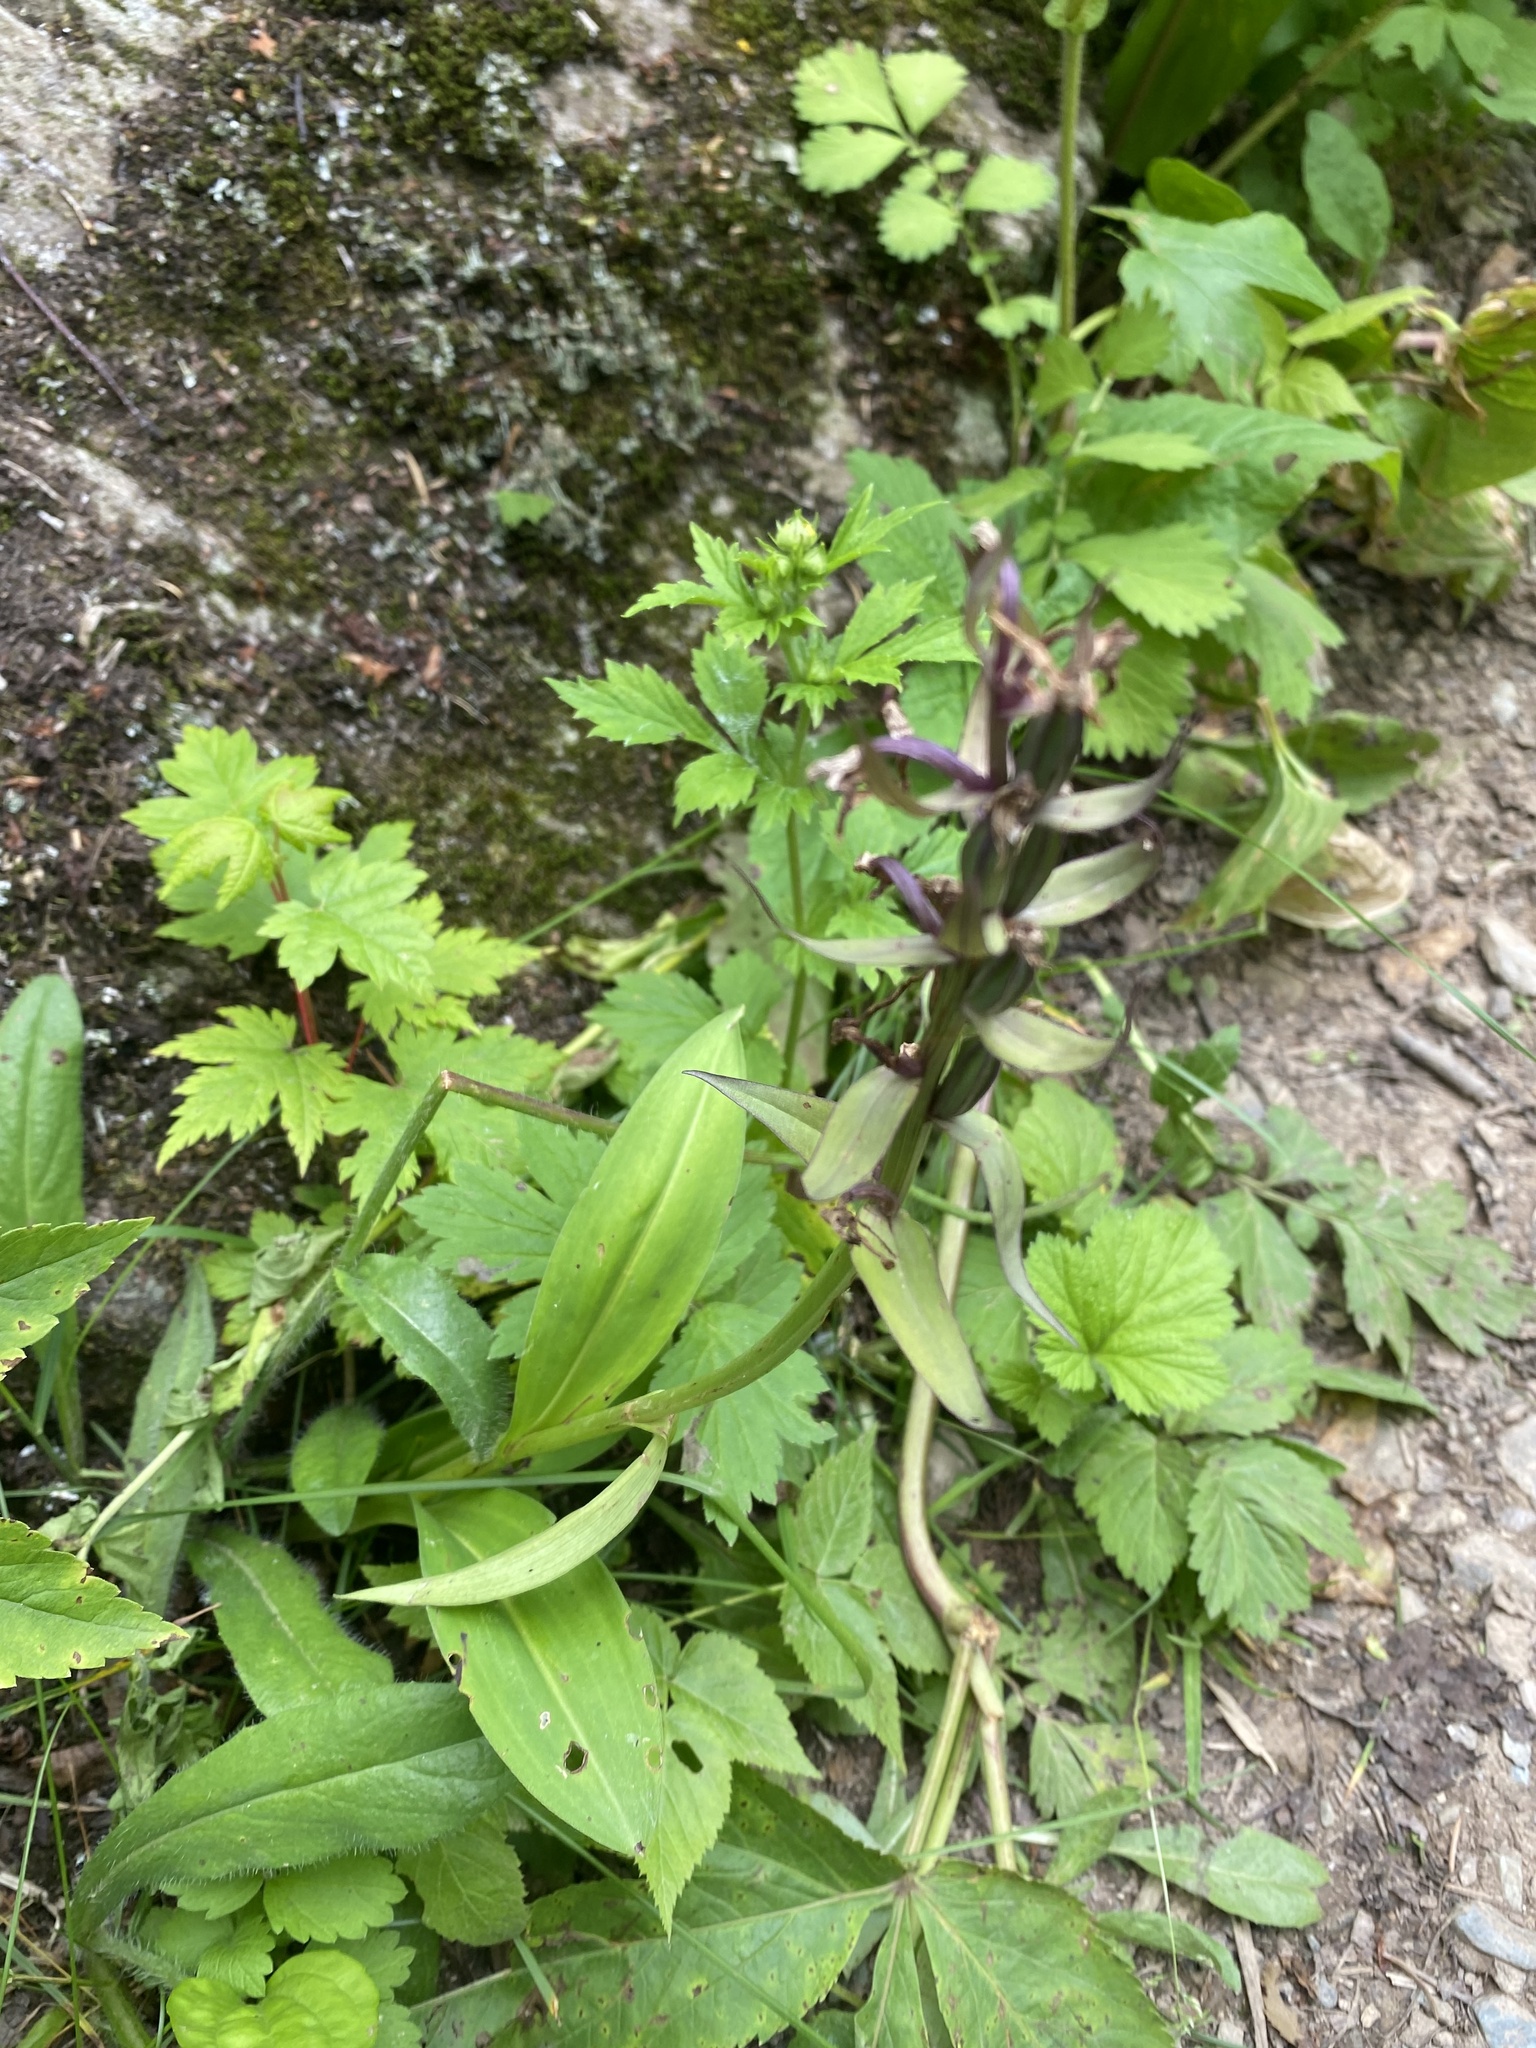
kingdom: Plantae
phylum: Tracheophyta
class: Liliopsida
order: Asparagales
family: Orchidaceae
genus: Dactylorhiza
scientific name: Dactylorhiza aristata
